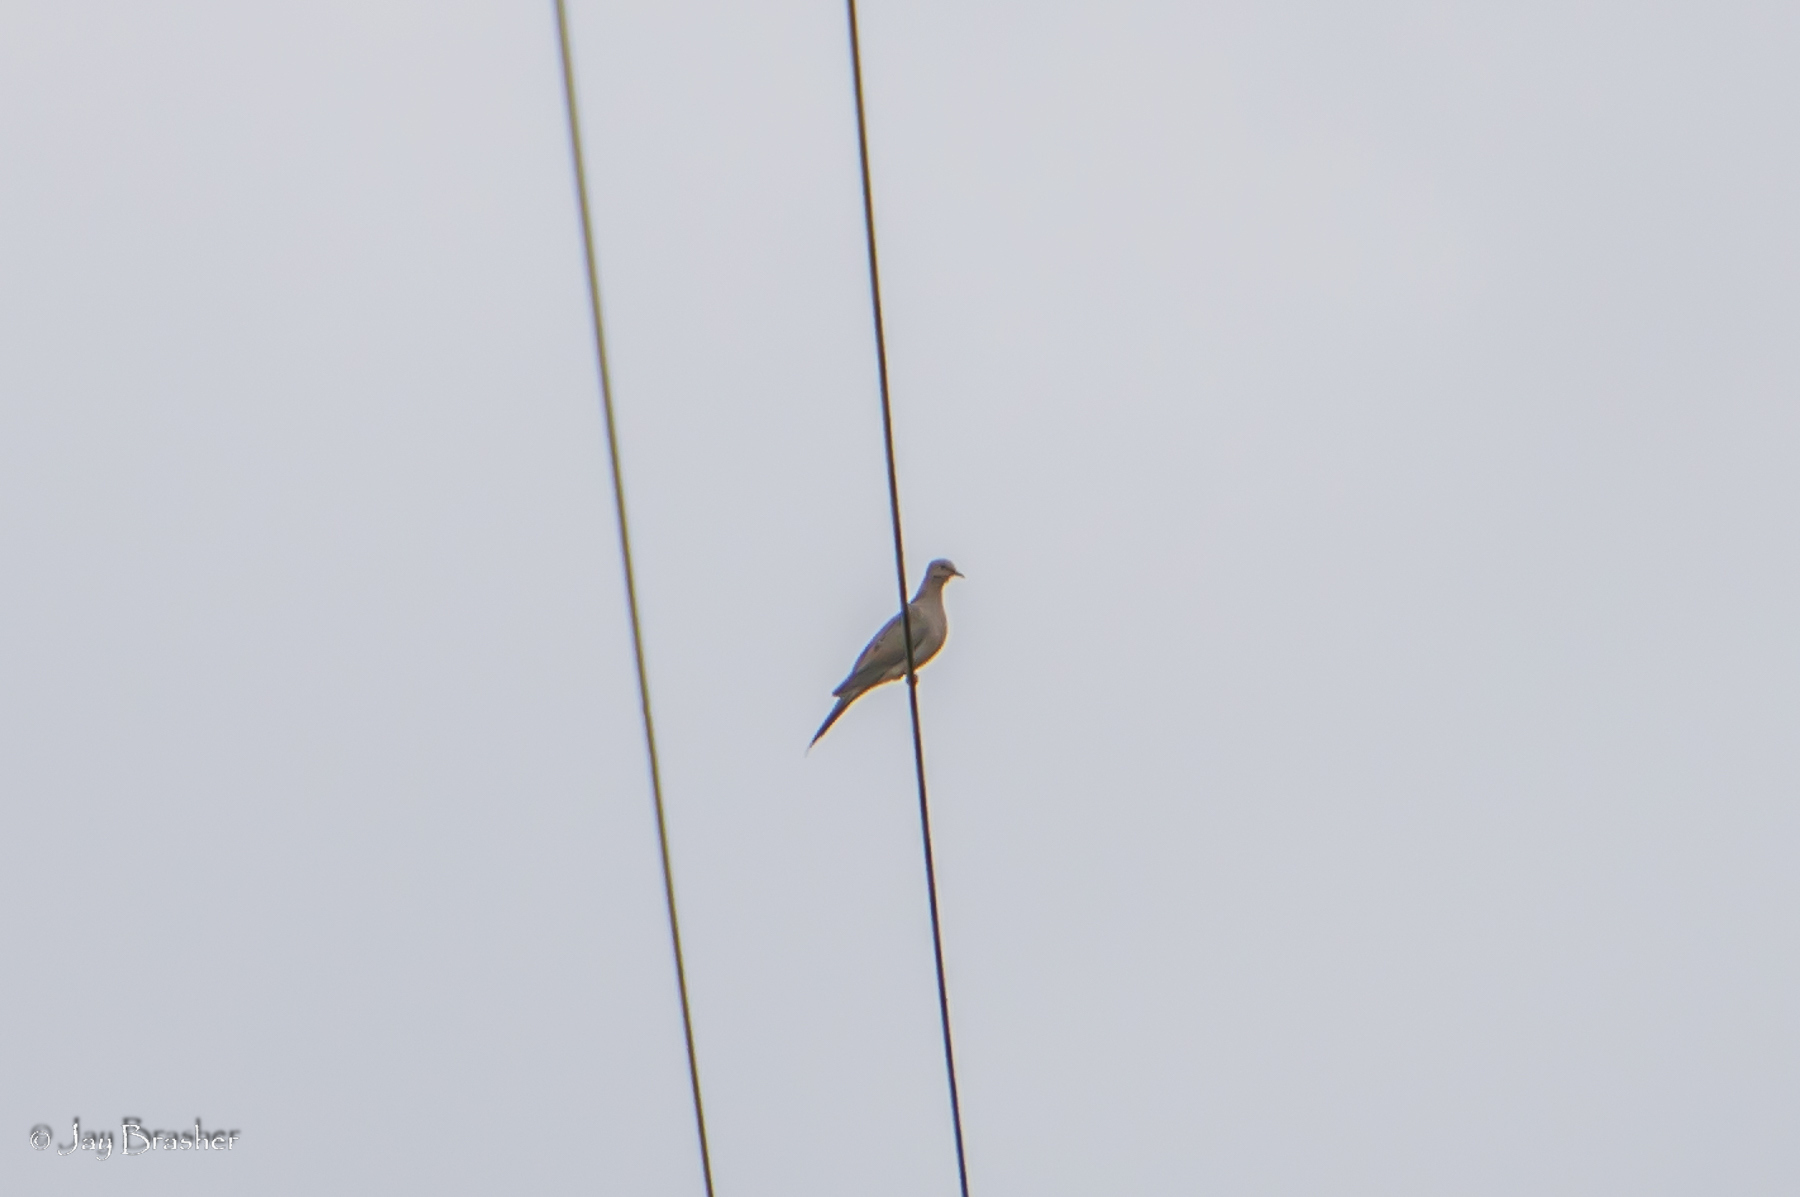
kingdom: Animalia
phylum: Chordata
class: Aves
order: Columbiformes
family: Columbidae
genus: Zenaida
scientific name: Zenaida macroura
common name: Mourning dove
